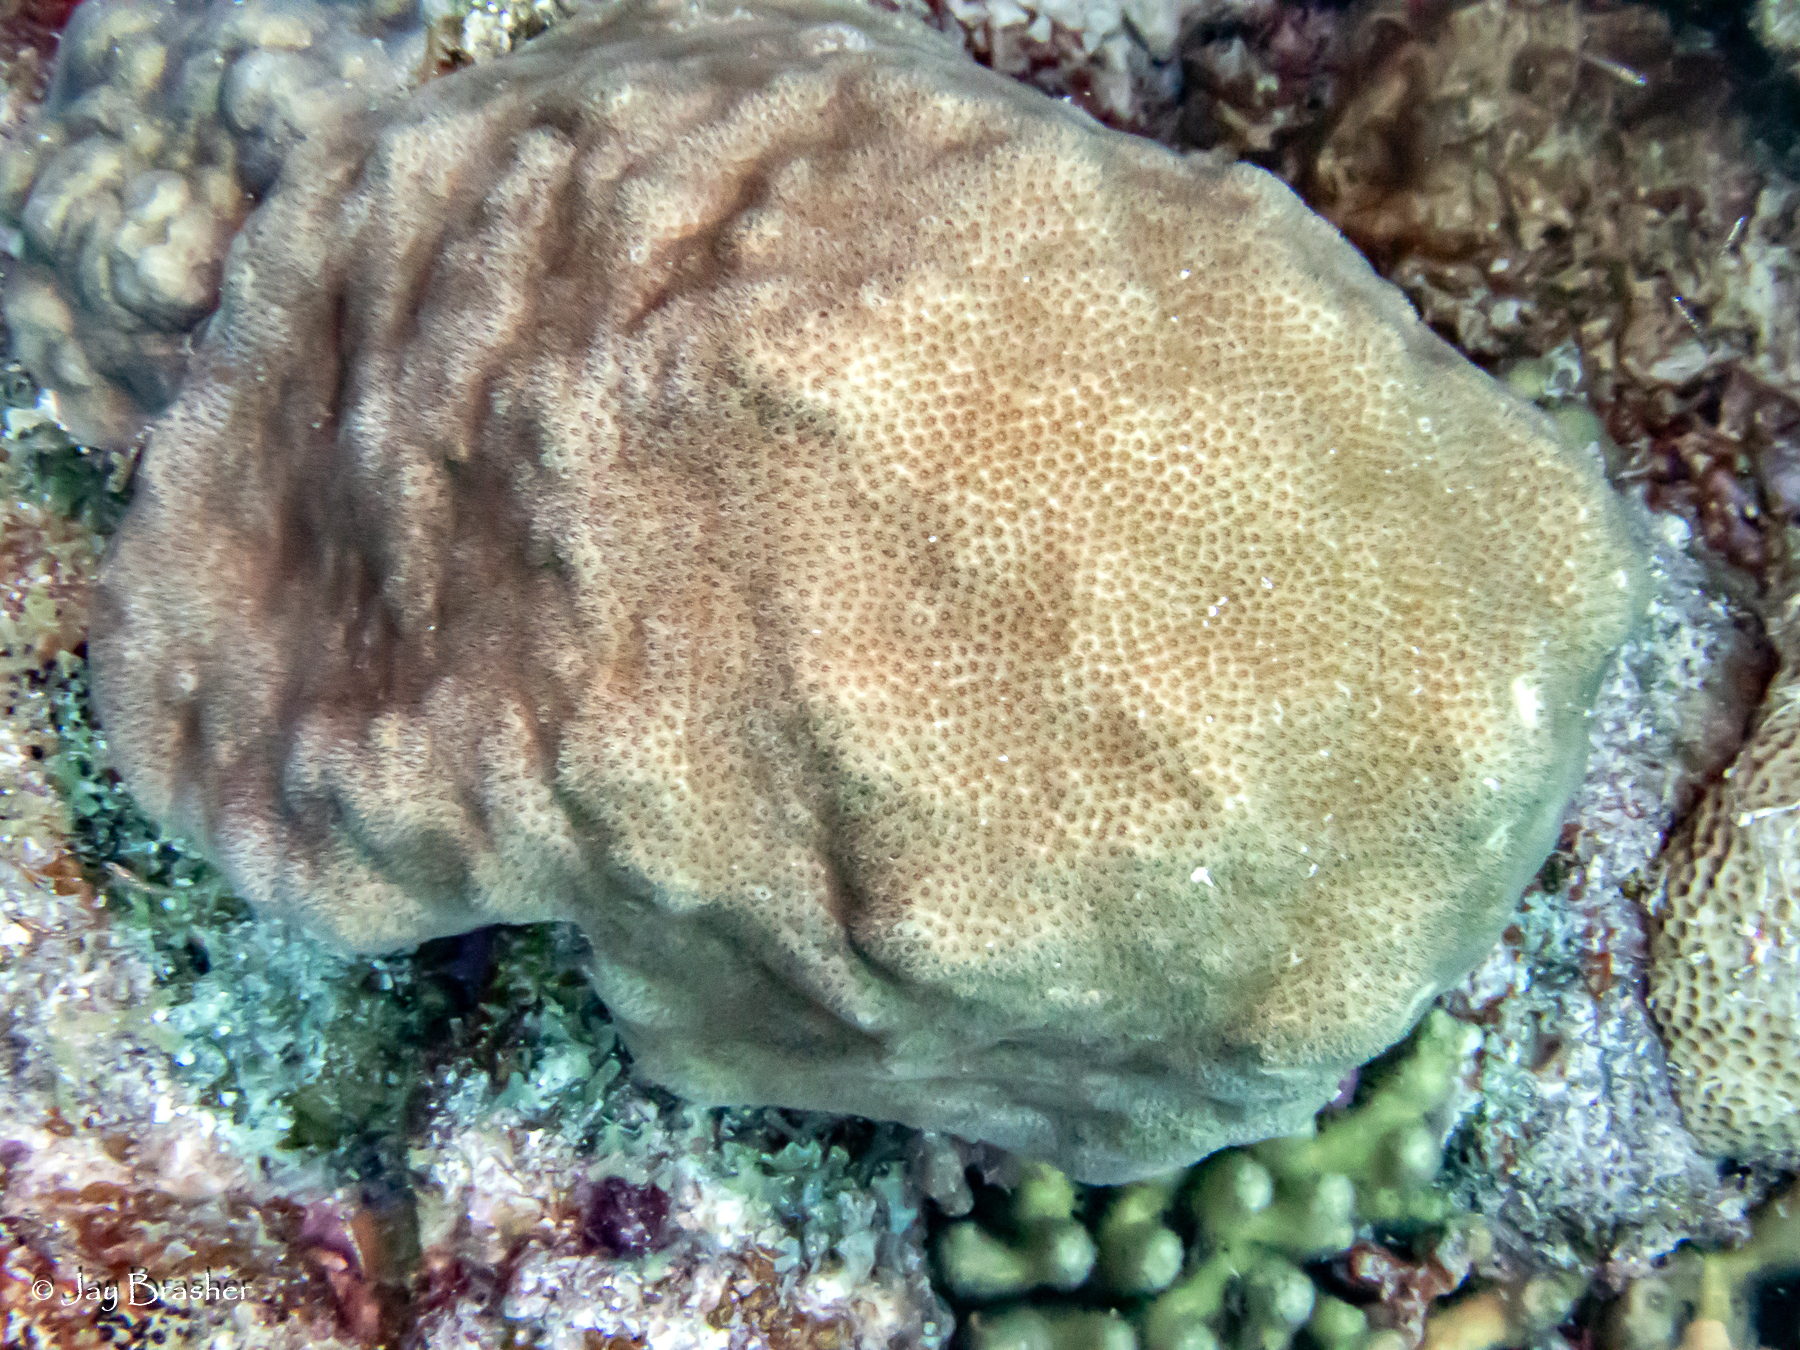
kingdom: Animalia
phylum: Cnidaria
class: Anthozoa
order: Scleractinia
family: Faviidae
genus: Solenastrea
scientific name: Solenastrea bournoni
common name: Smooth star coral
